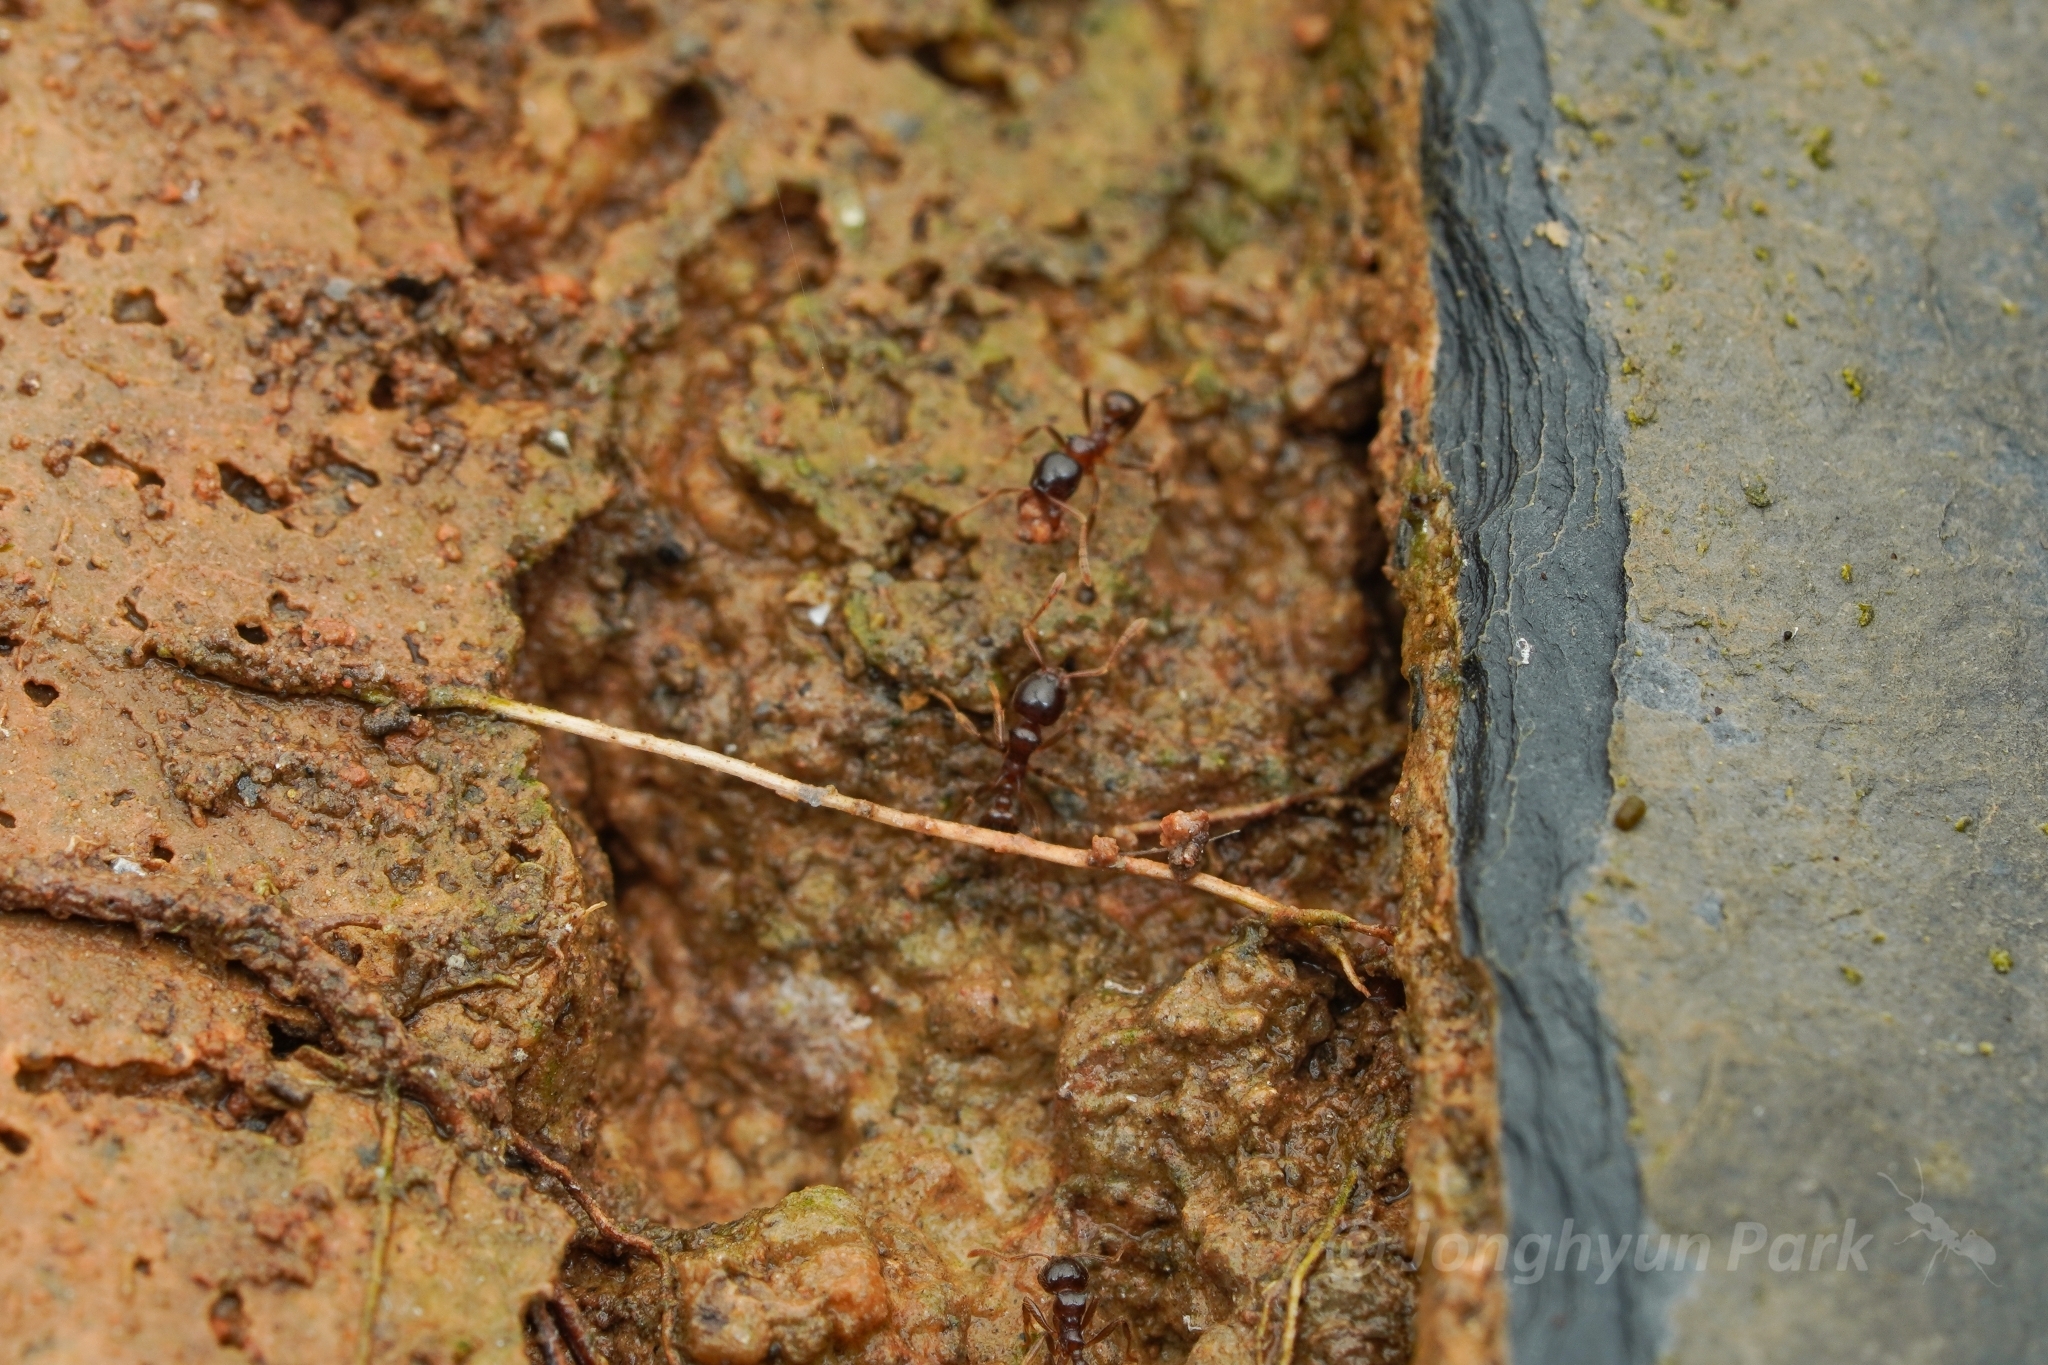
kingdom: Animalia
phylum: Arthropoda
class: Insecta
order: Hymenoptera
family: Formicidae
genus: Lophomyrmex
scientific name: Lophomyrmex birmanus
